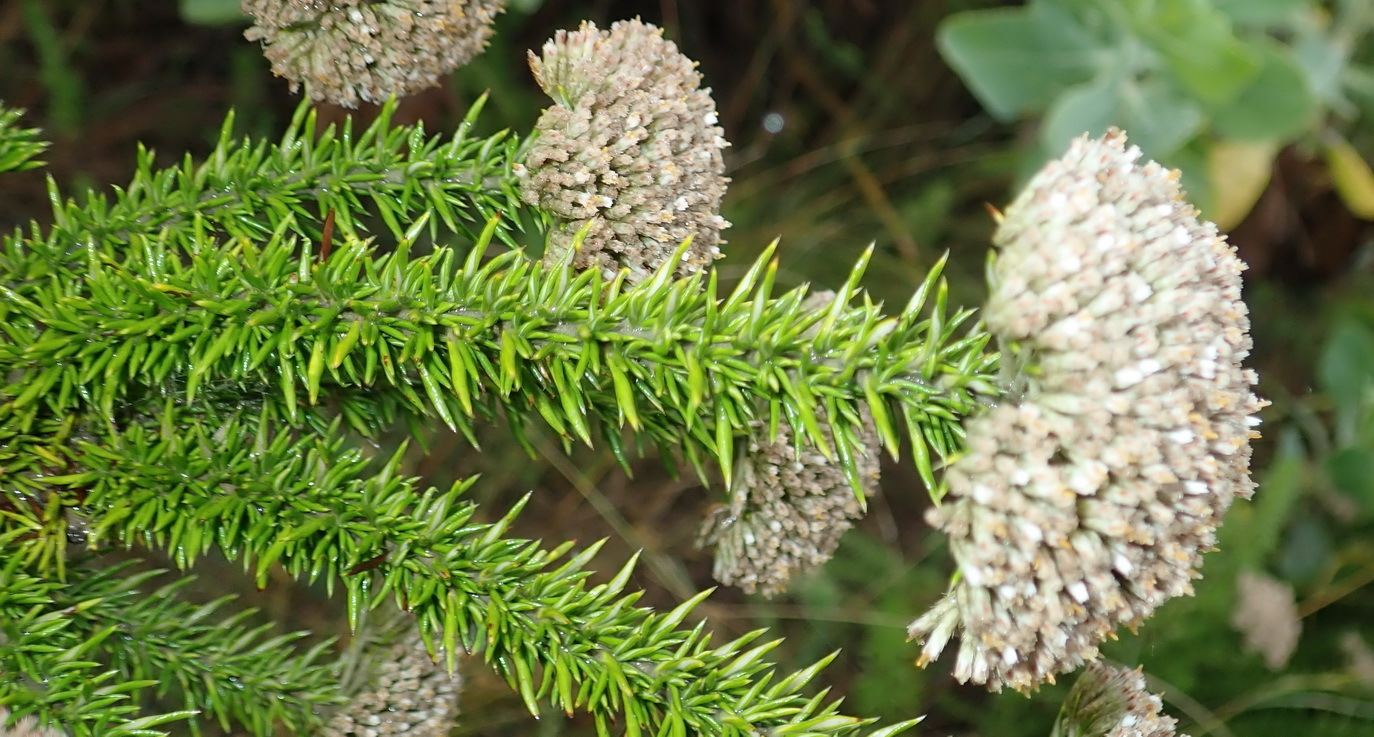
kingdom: Plantae
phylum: Tracheophyta
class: Magnoliopsida
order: Asterales
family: Asteraceae
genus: Metalasia
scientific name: Metalasia trivialis
